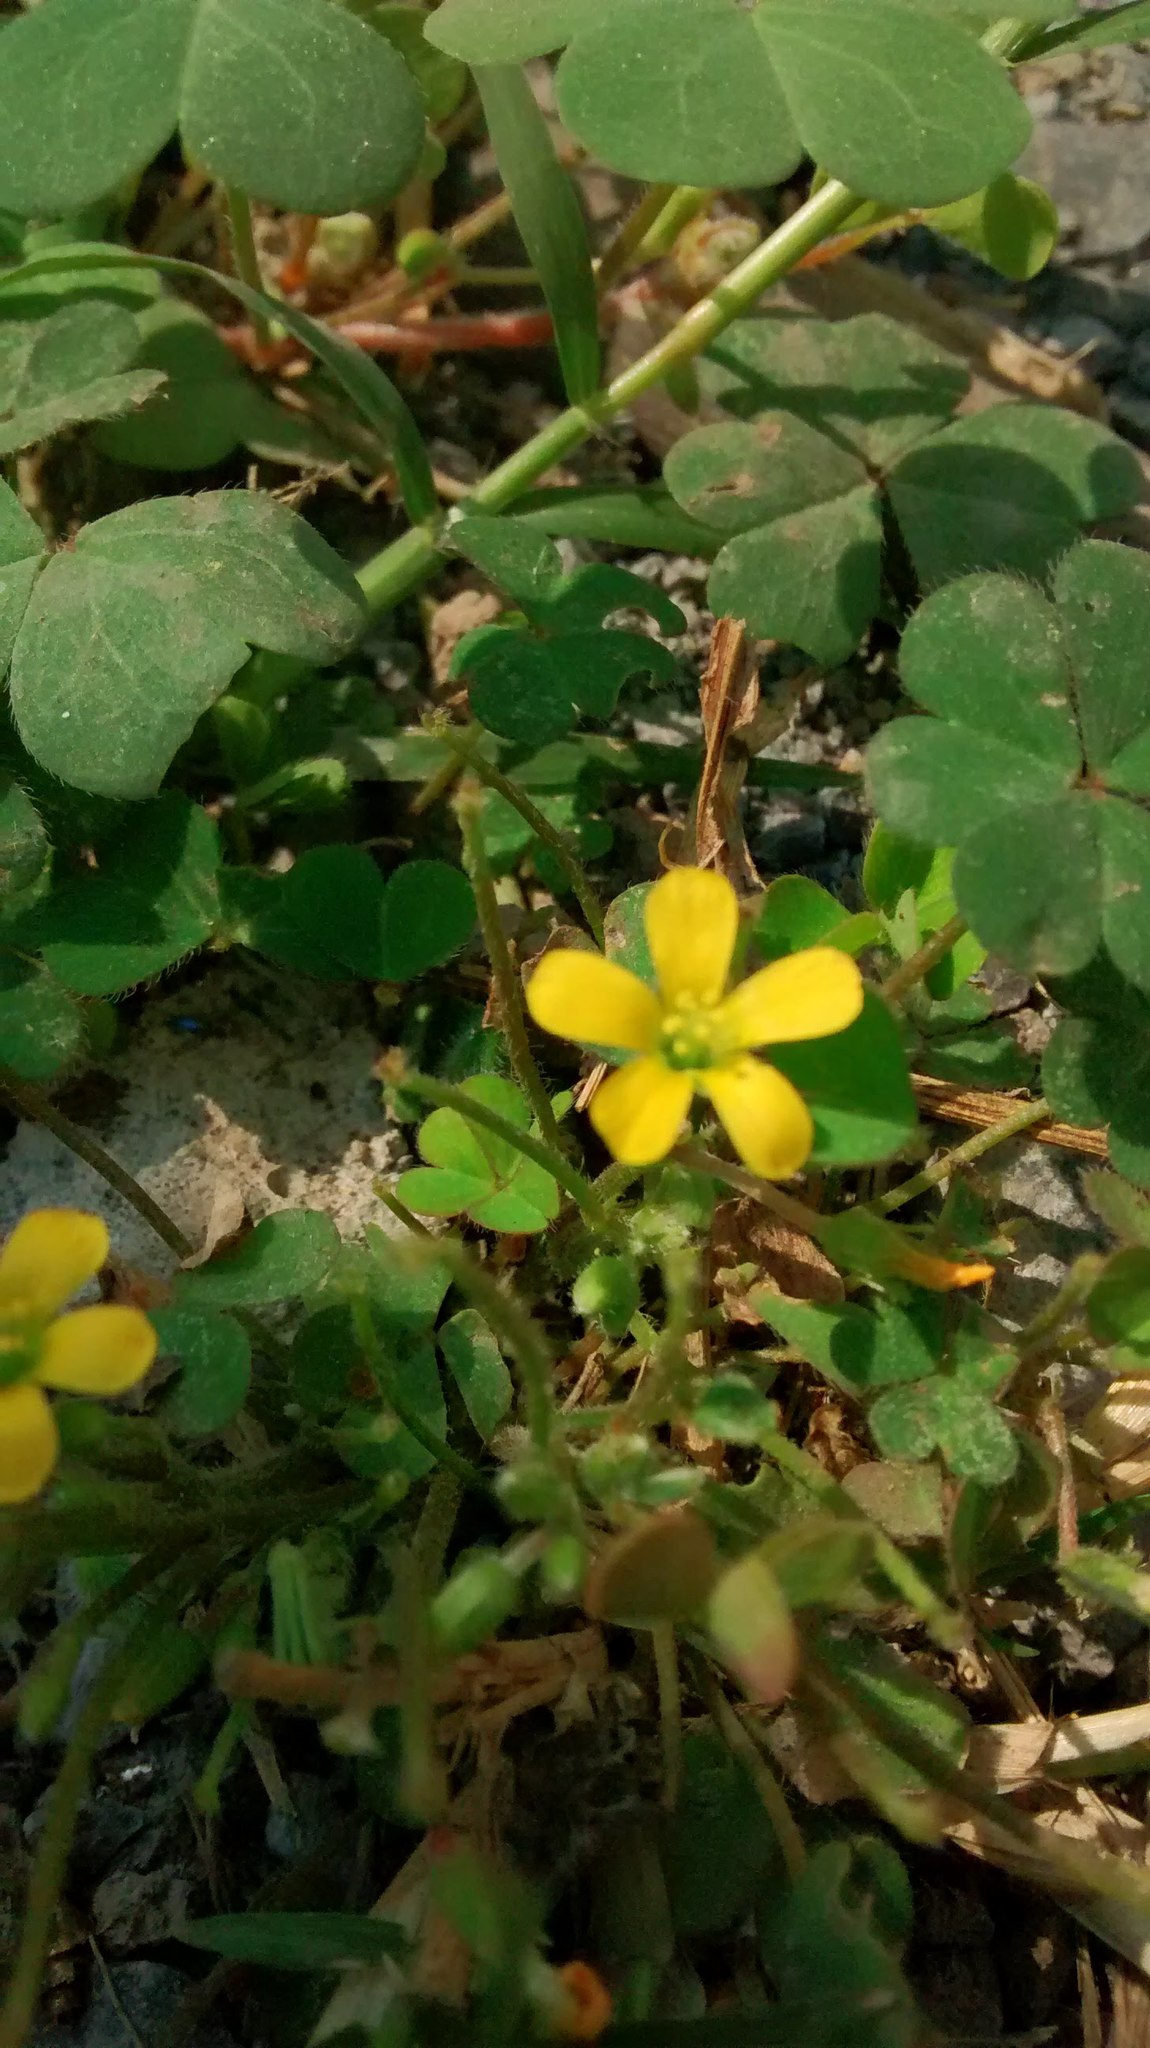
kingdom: Plantae
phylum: Tracheophyta
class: Magnoliopsida
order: Oxalidales
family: Oxalidaceae
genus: Oxalis
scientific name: Oxalis corniculata
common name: Procumbent yellow-sorrel
